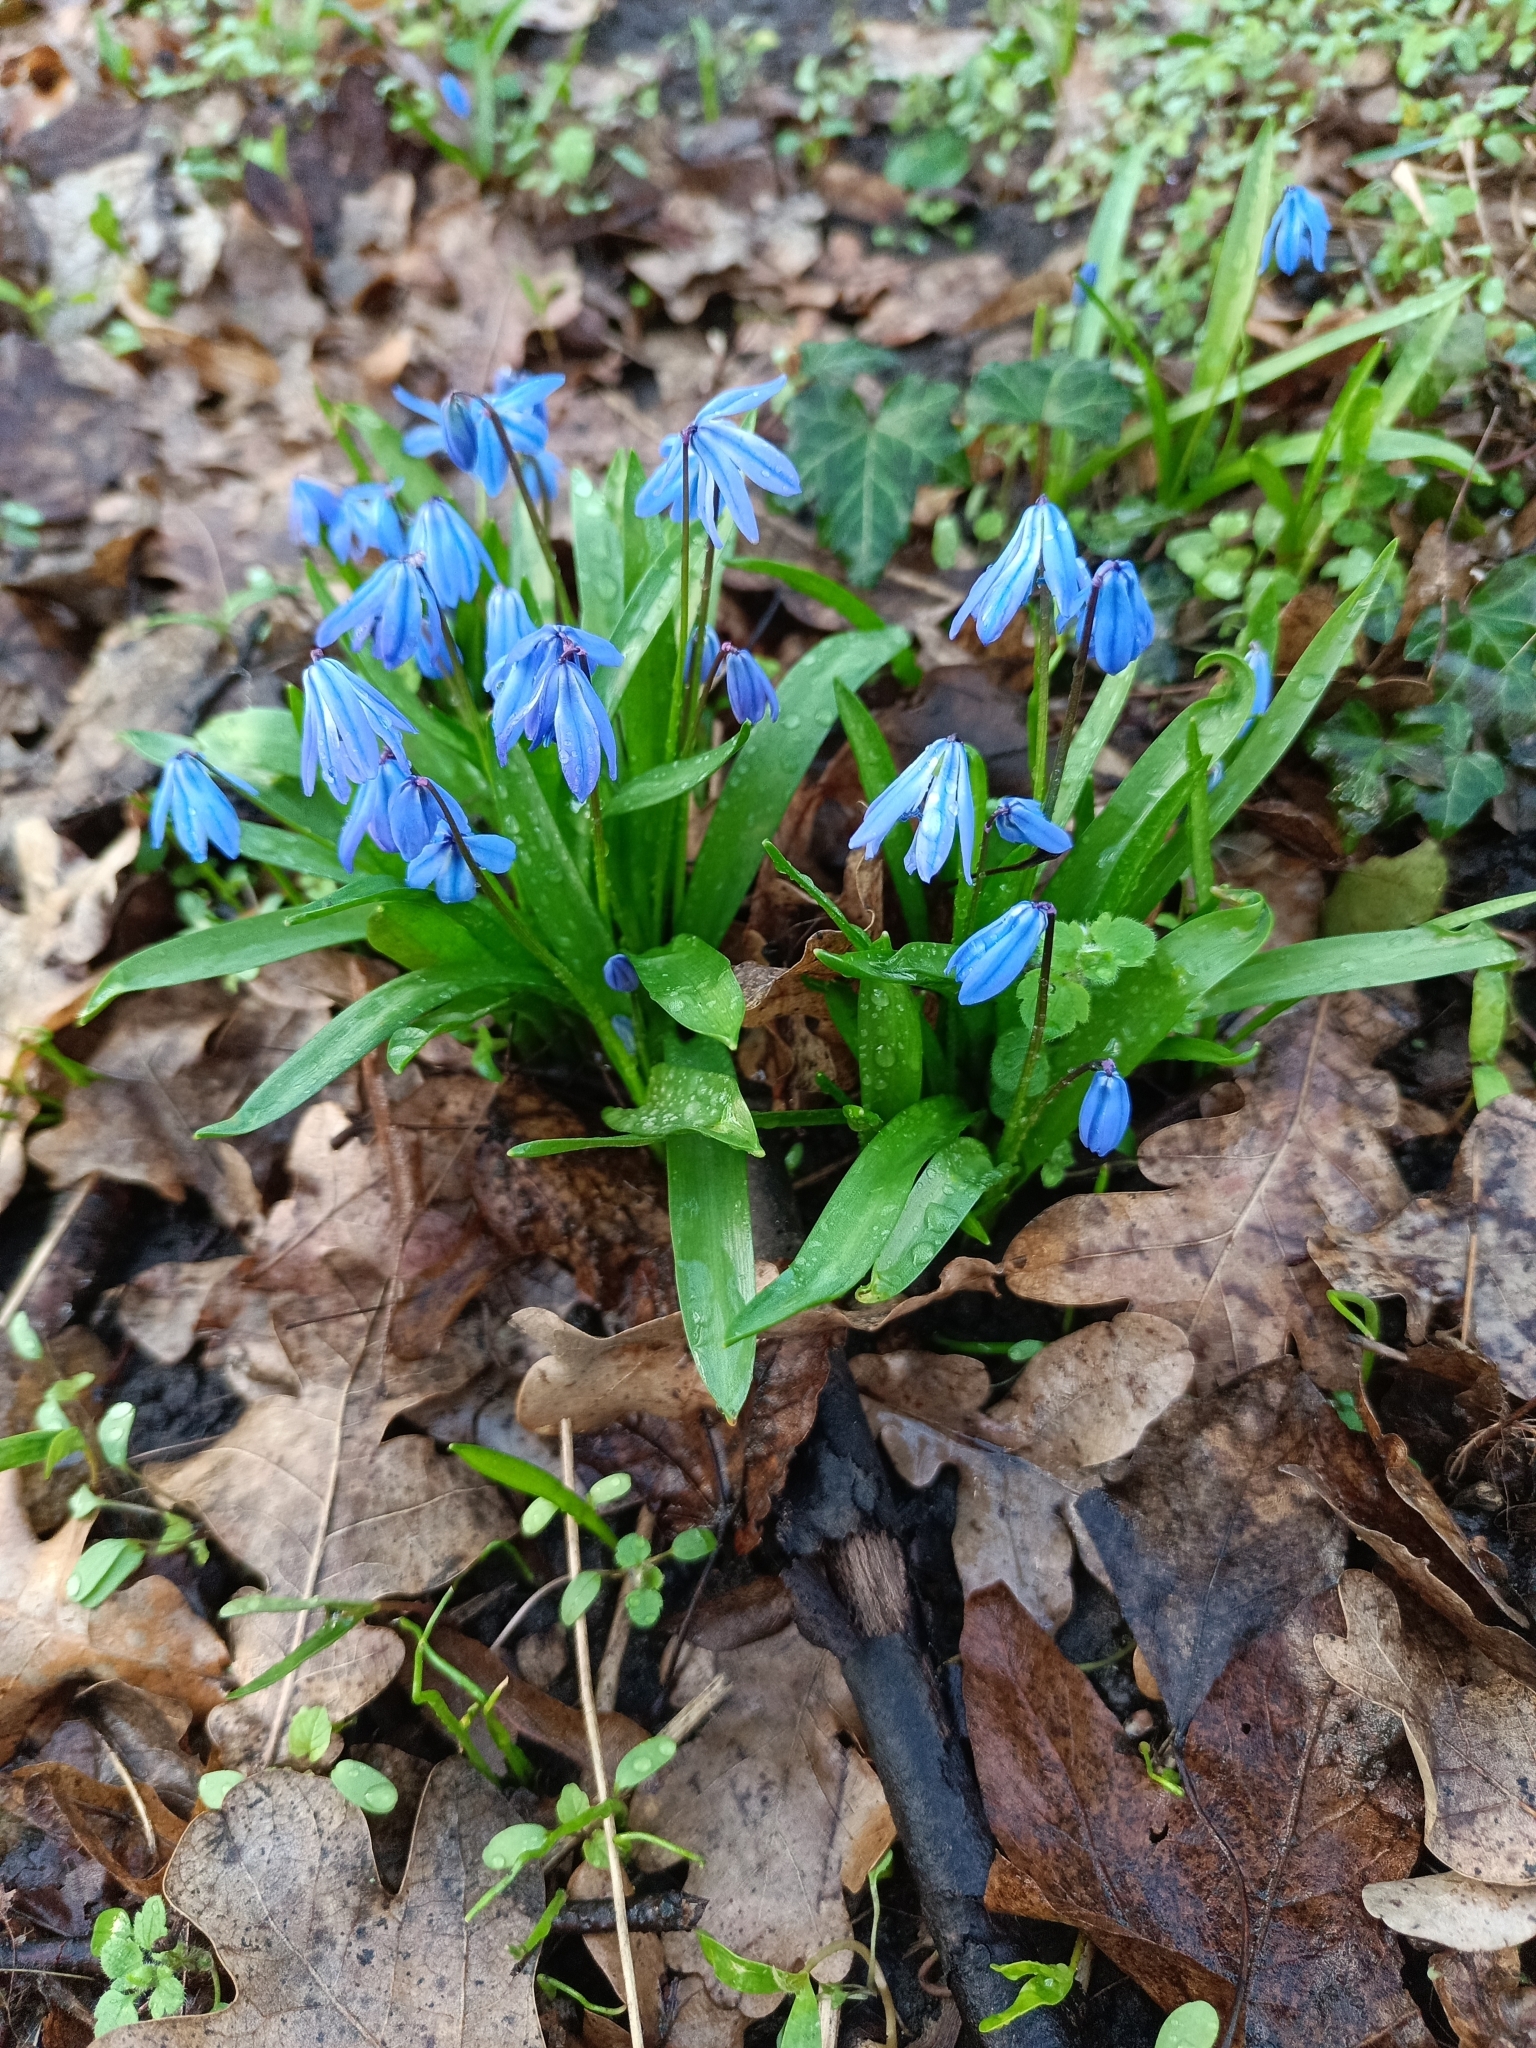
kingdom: Plantae
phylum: Tracheophyta
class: Liliopsida
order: Asparagales
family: Asparagaceae
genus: Scilla
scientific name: Scilla siberica
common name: Siberian squill
